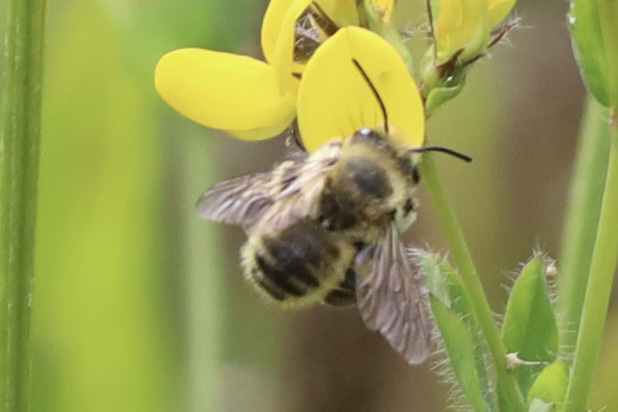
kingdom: Animalia
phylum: Arthropoda
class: Insecta
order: Hymenoptera
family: Megachilidae
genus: Megachile
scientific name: Megachile perihirta
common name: Western leafcutter
